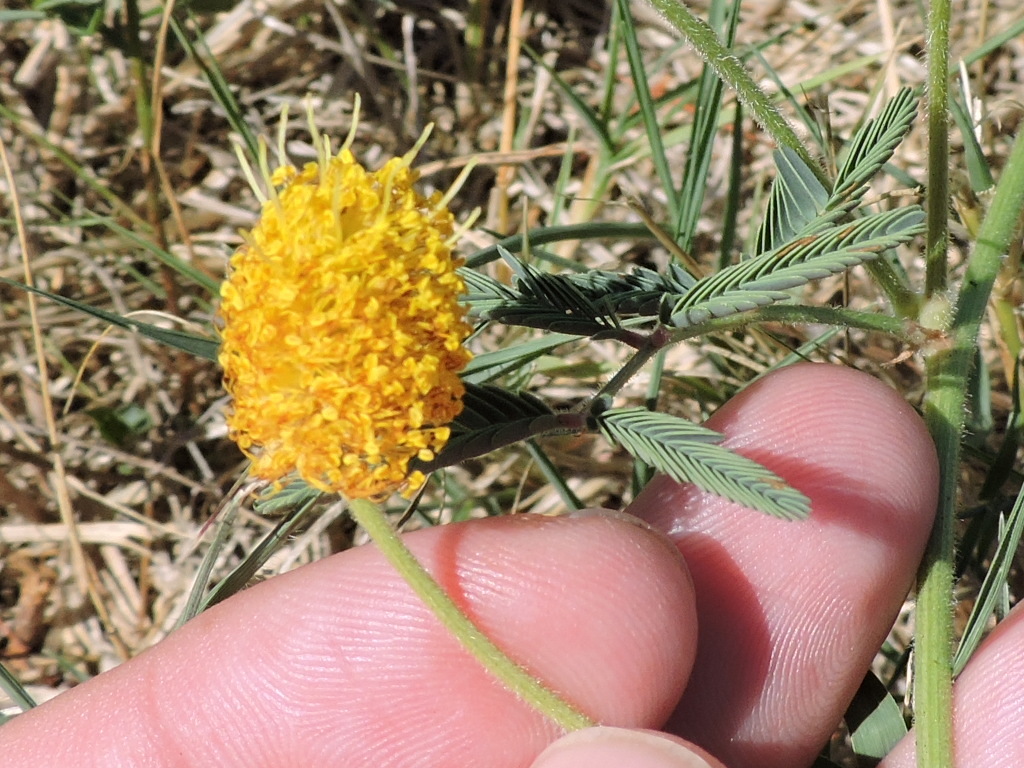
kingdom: Plantae
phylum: Tracheophyta
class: Magnoliopsida
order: Fabales
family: Fabaceae
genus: Neptunia
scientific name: Neptunia lutea
